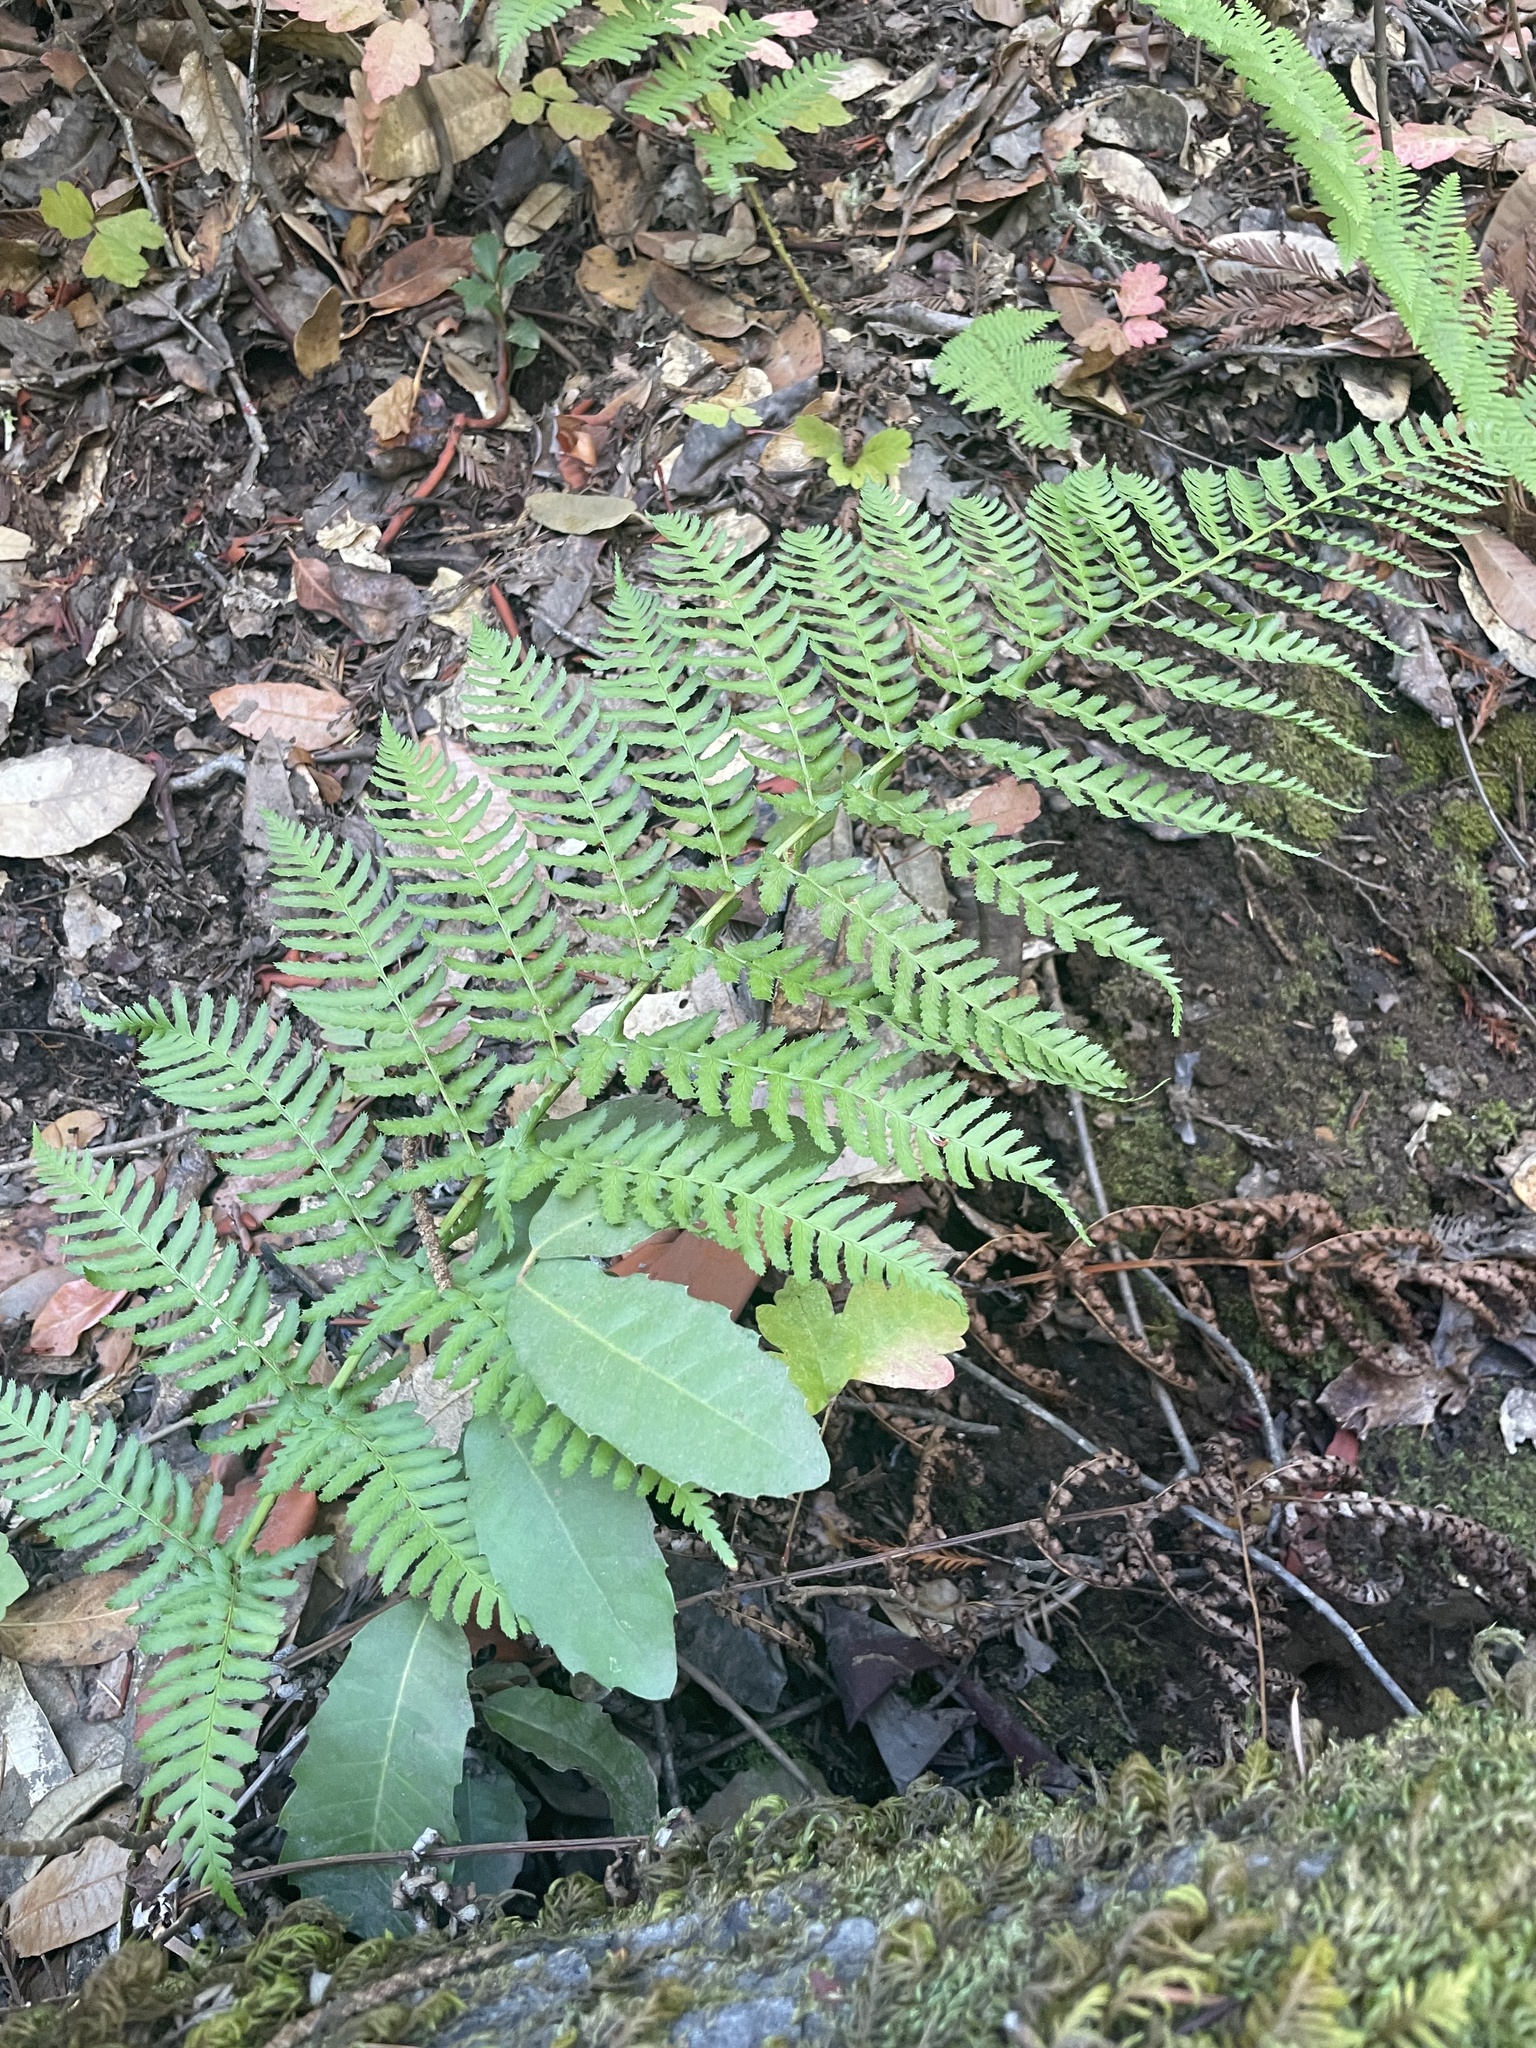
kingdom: Plantae
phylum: Tracheophyta
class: Polypodiopsida
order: Polypodiales
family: Dryopteridaceae
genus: Dryopteris
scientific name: Dryopteris arguta
